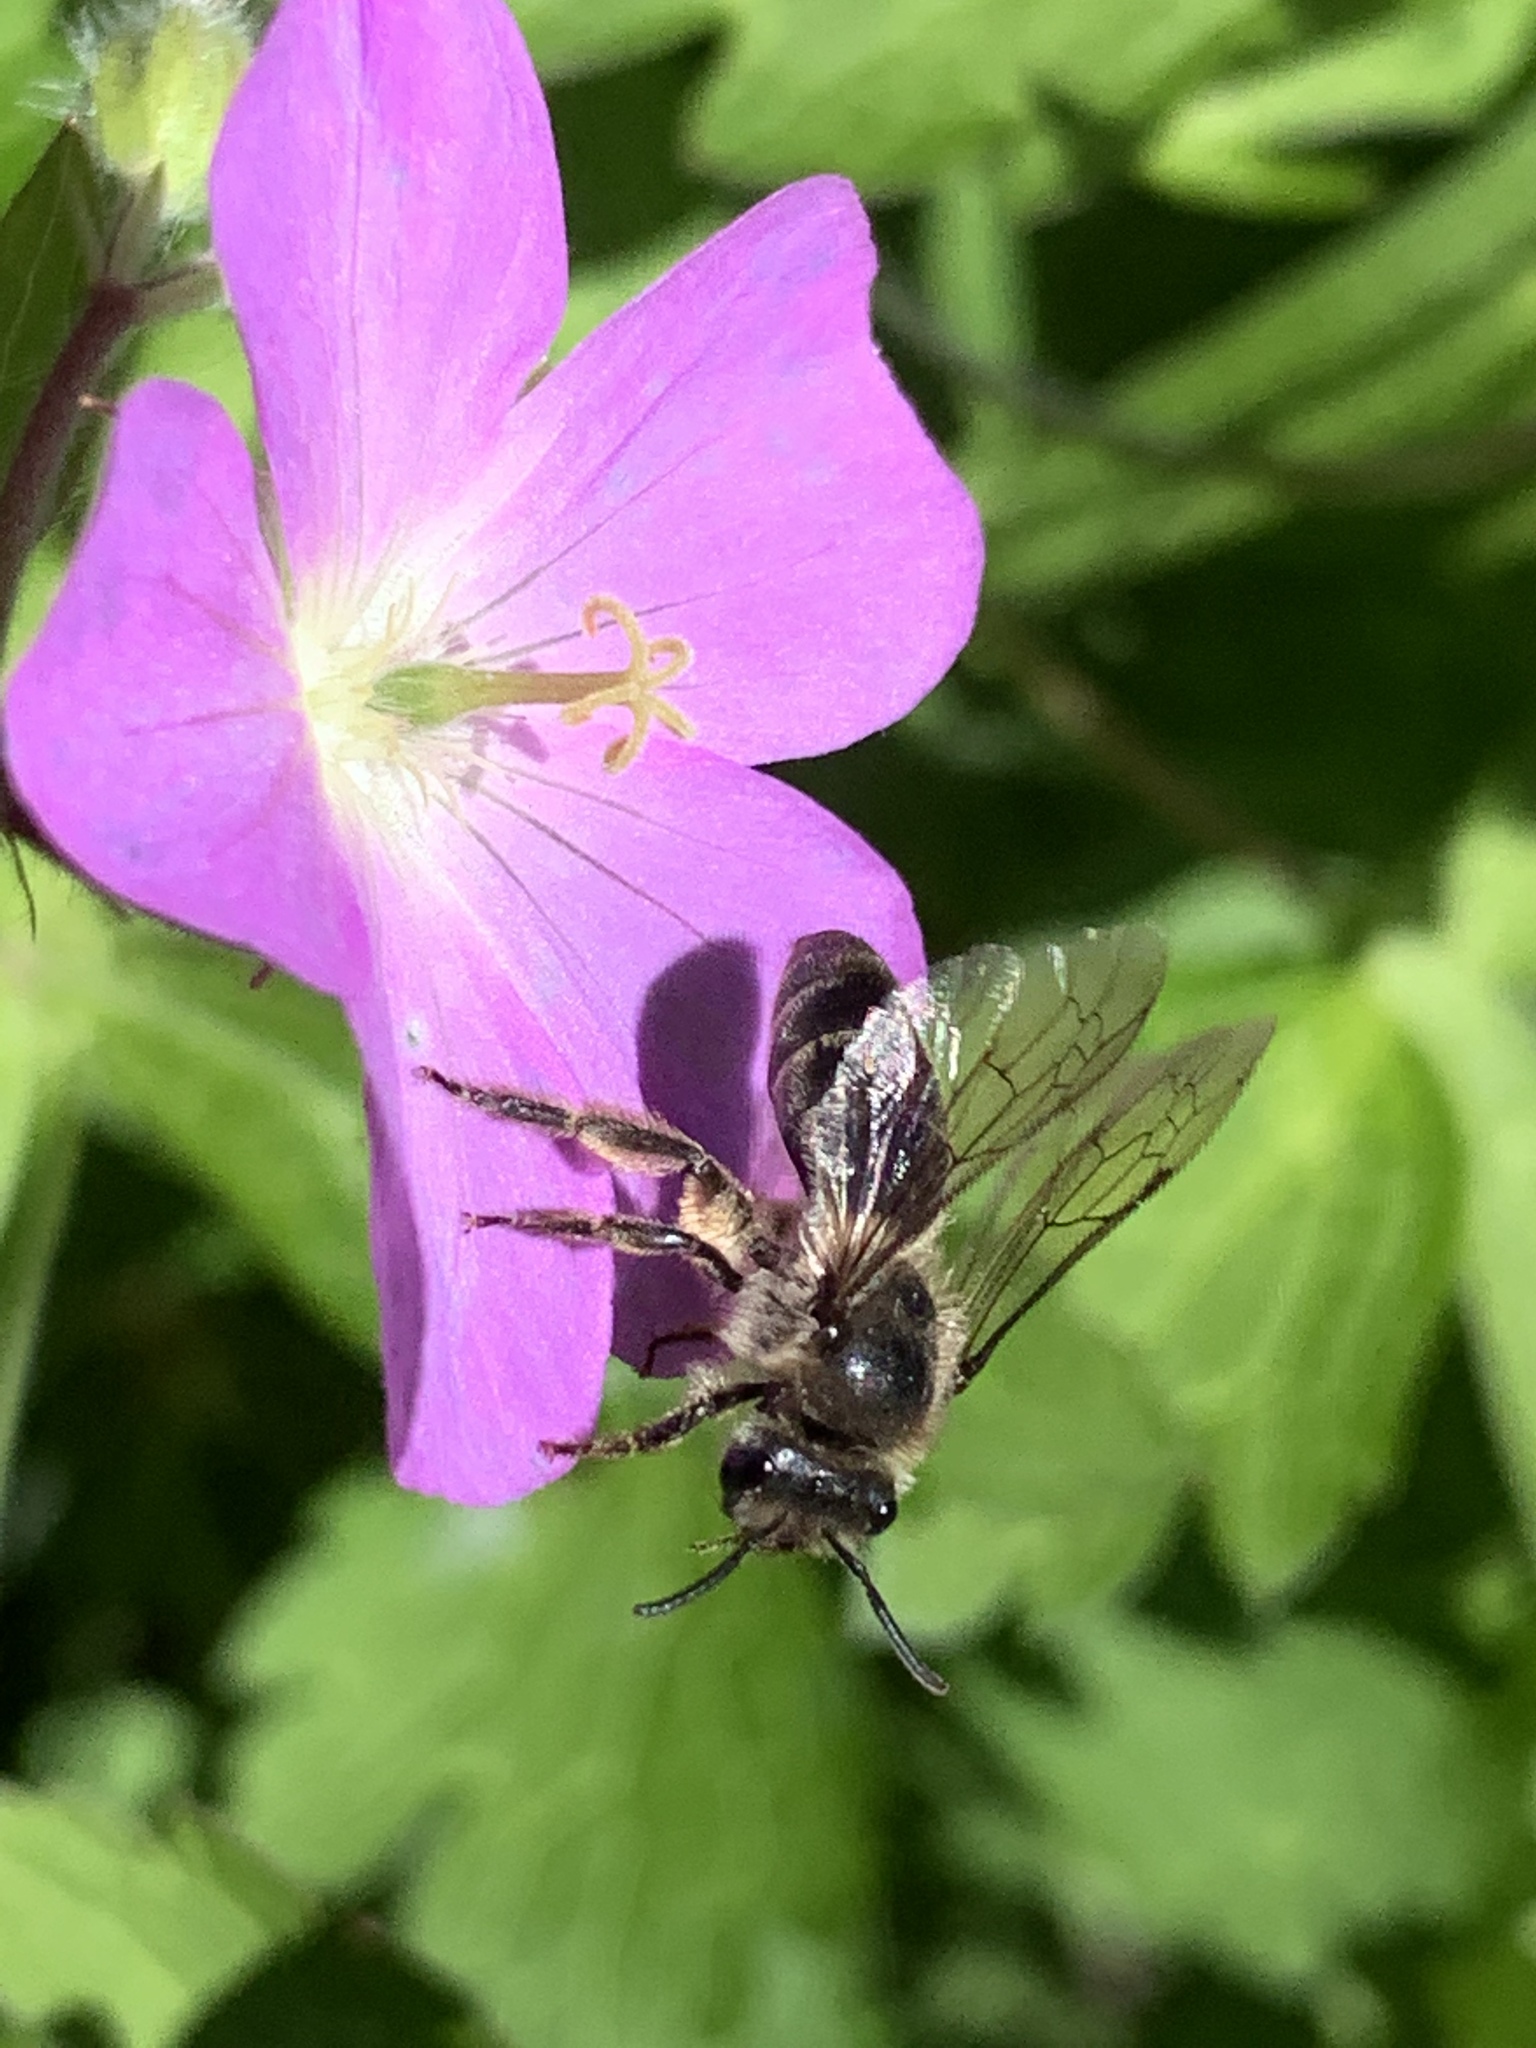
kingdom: Animalia
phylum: Arthropoda
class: Insecta
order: Hymenoptera
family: Colletidae
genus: Colletes
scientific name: Colletes inaequalis
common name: Unequal cellophane bee
